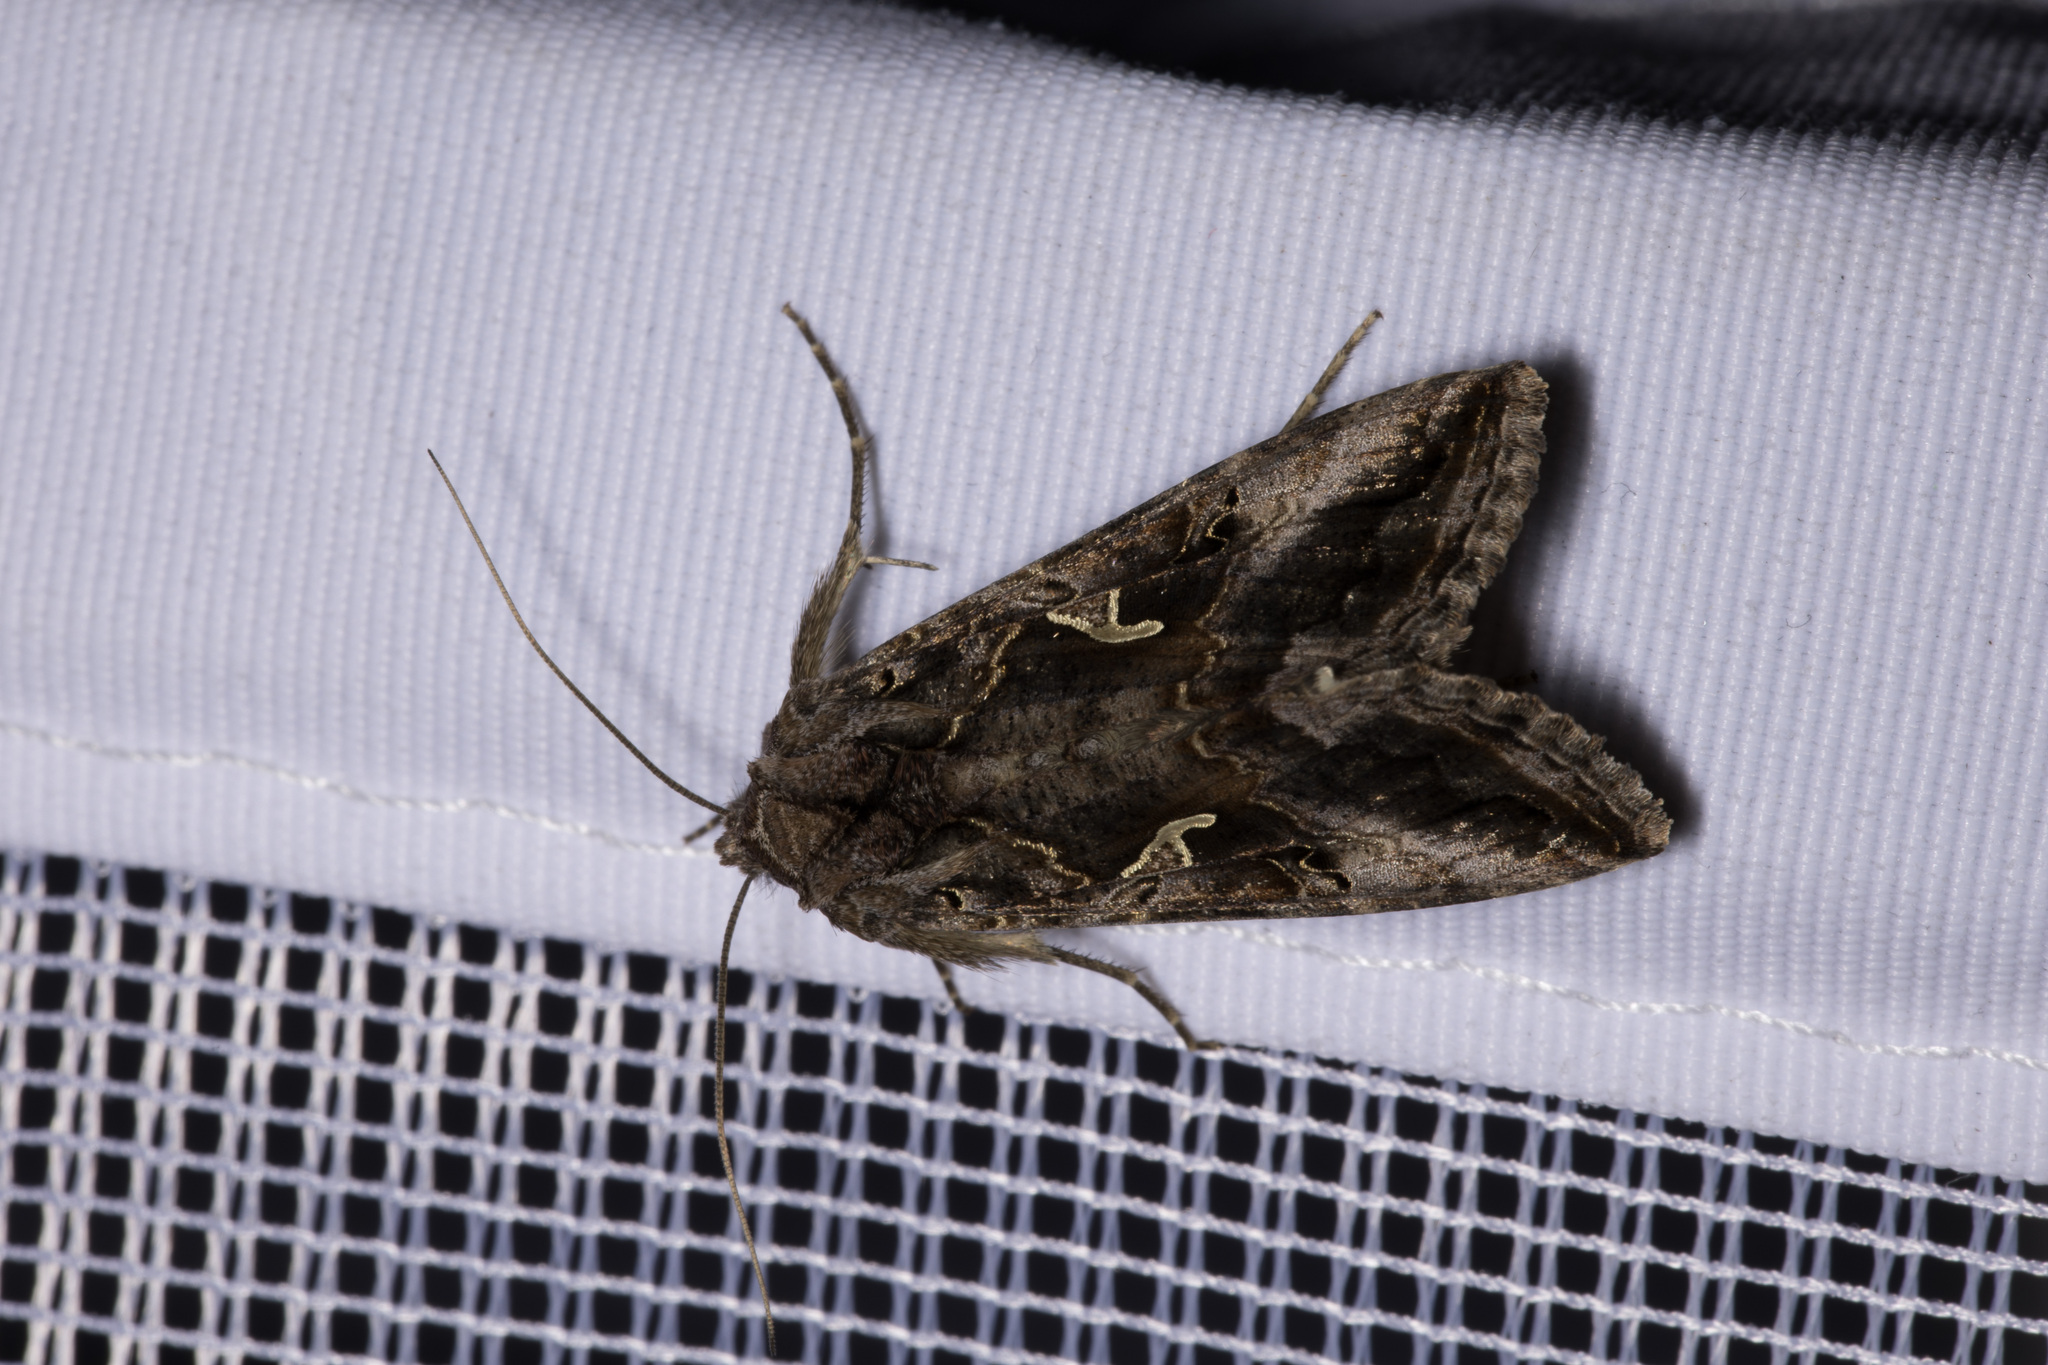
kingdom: Animalia
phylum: Arthropoda
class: Insecta
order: Lepidoptera
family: Noctuidae
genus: Autographa
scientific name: Autographa gamma
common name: Silver y
